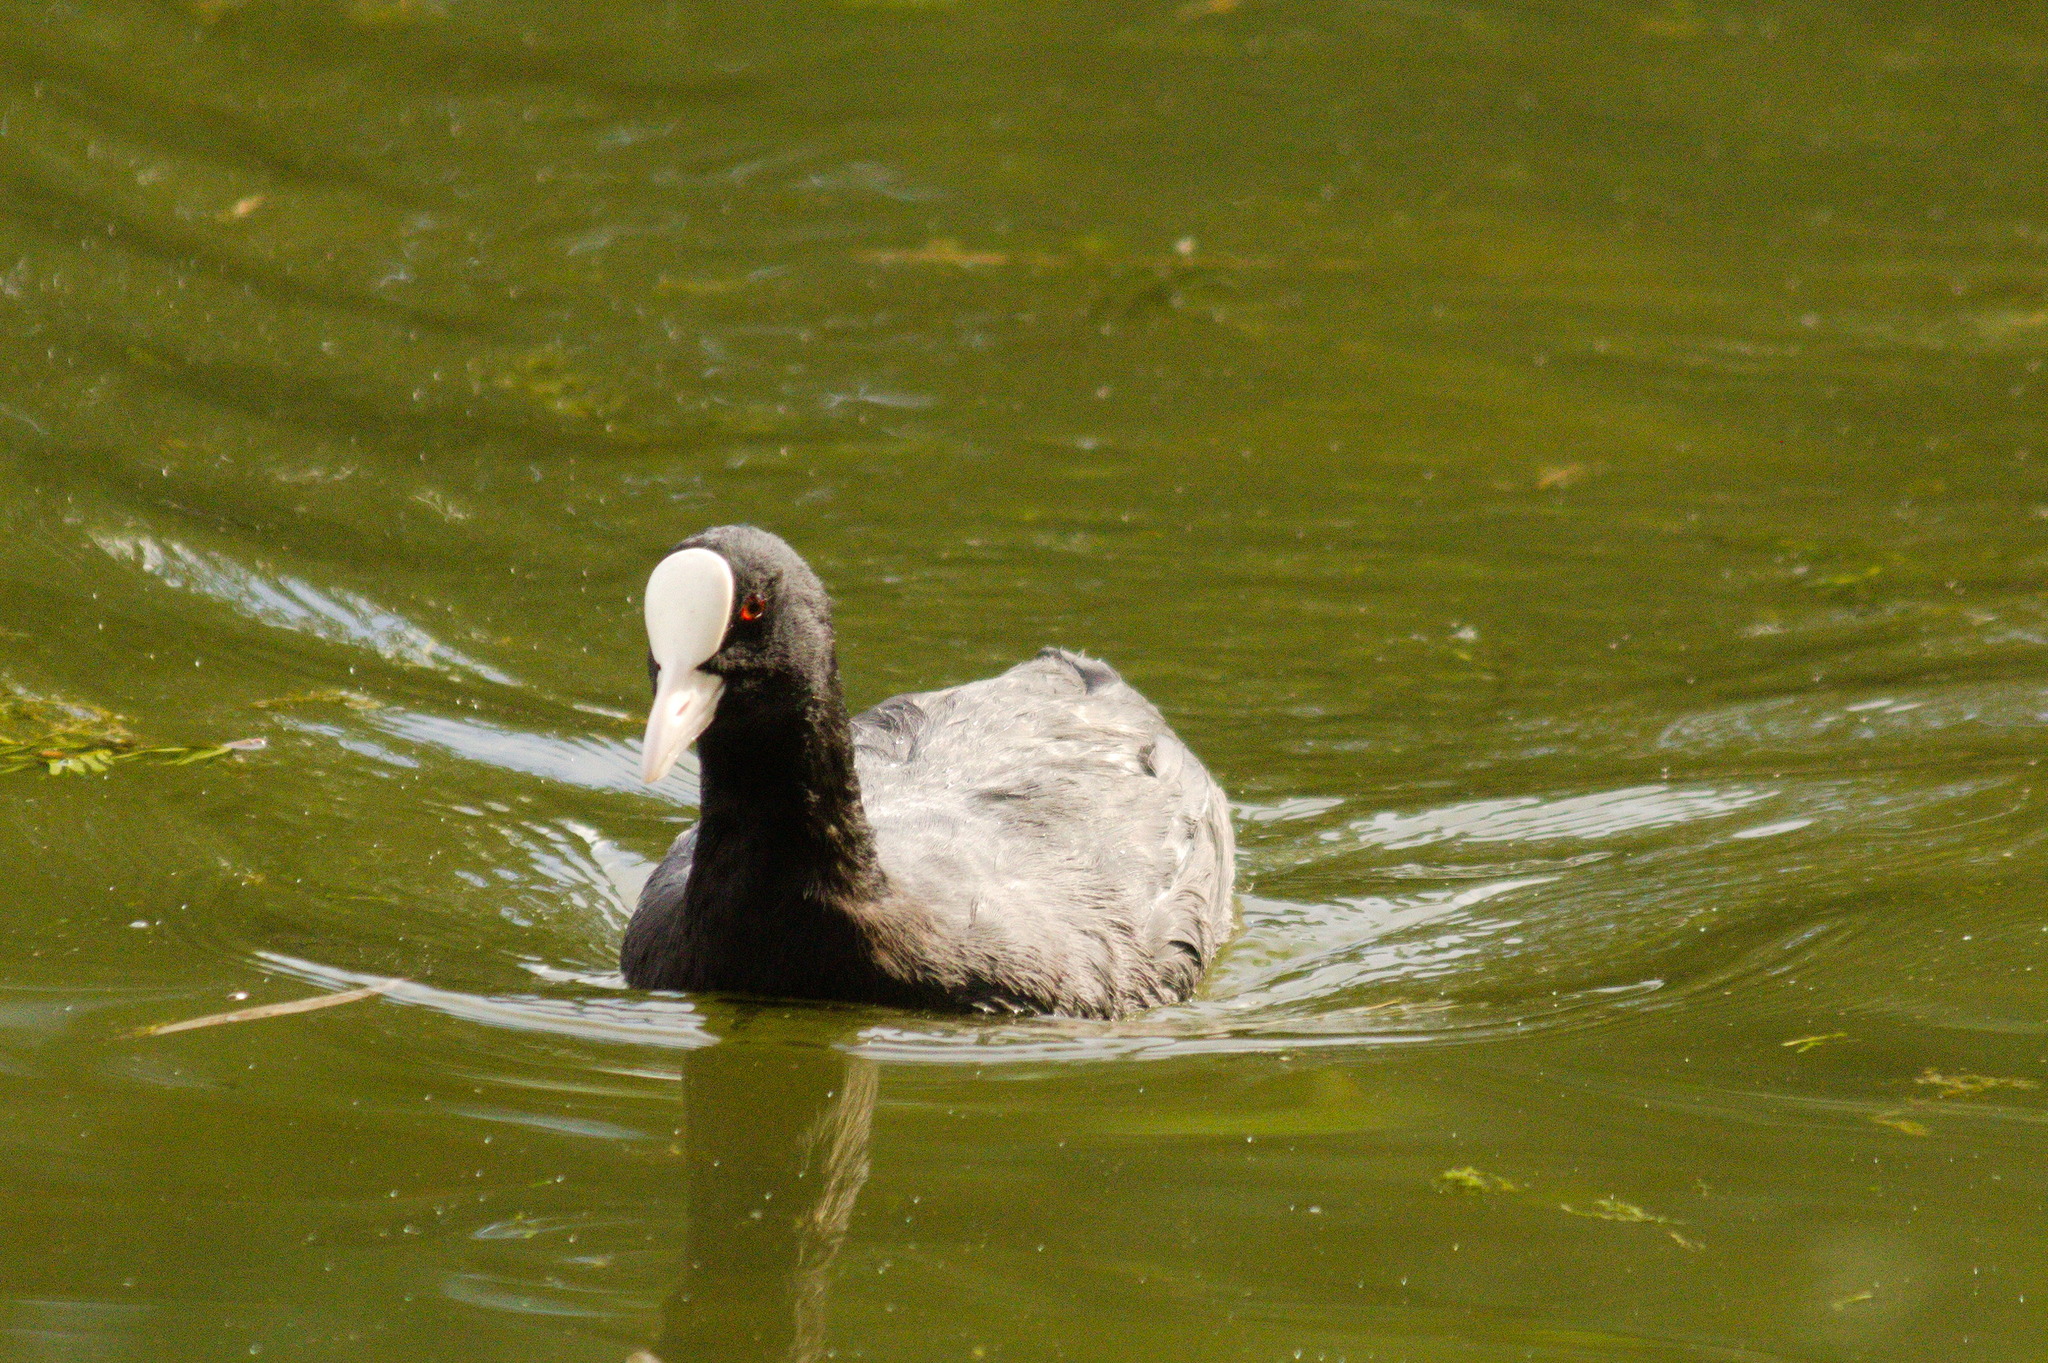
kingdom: Animalia
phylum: Chordata
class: Aves
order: Gruiformes
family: Rallidae
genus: Fulica
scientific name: Fulica atra
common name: Eurasian coot
